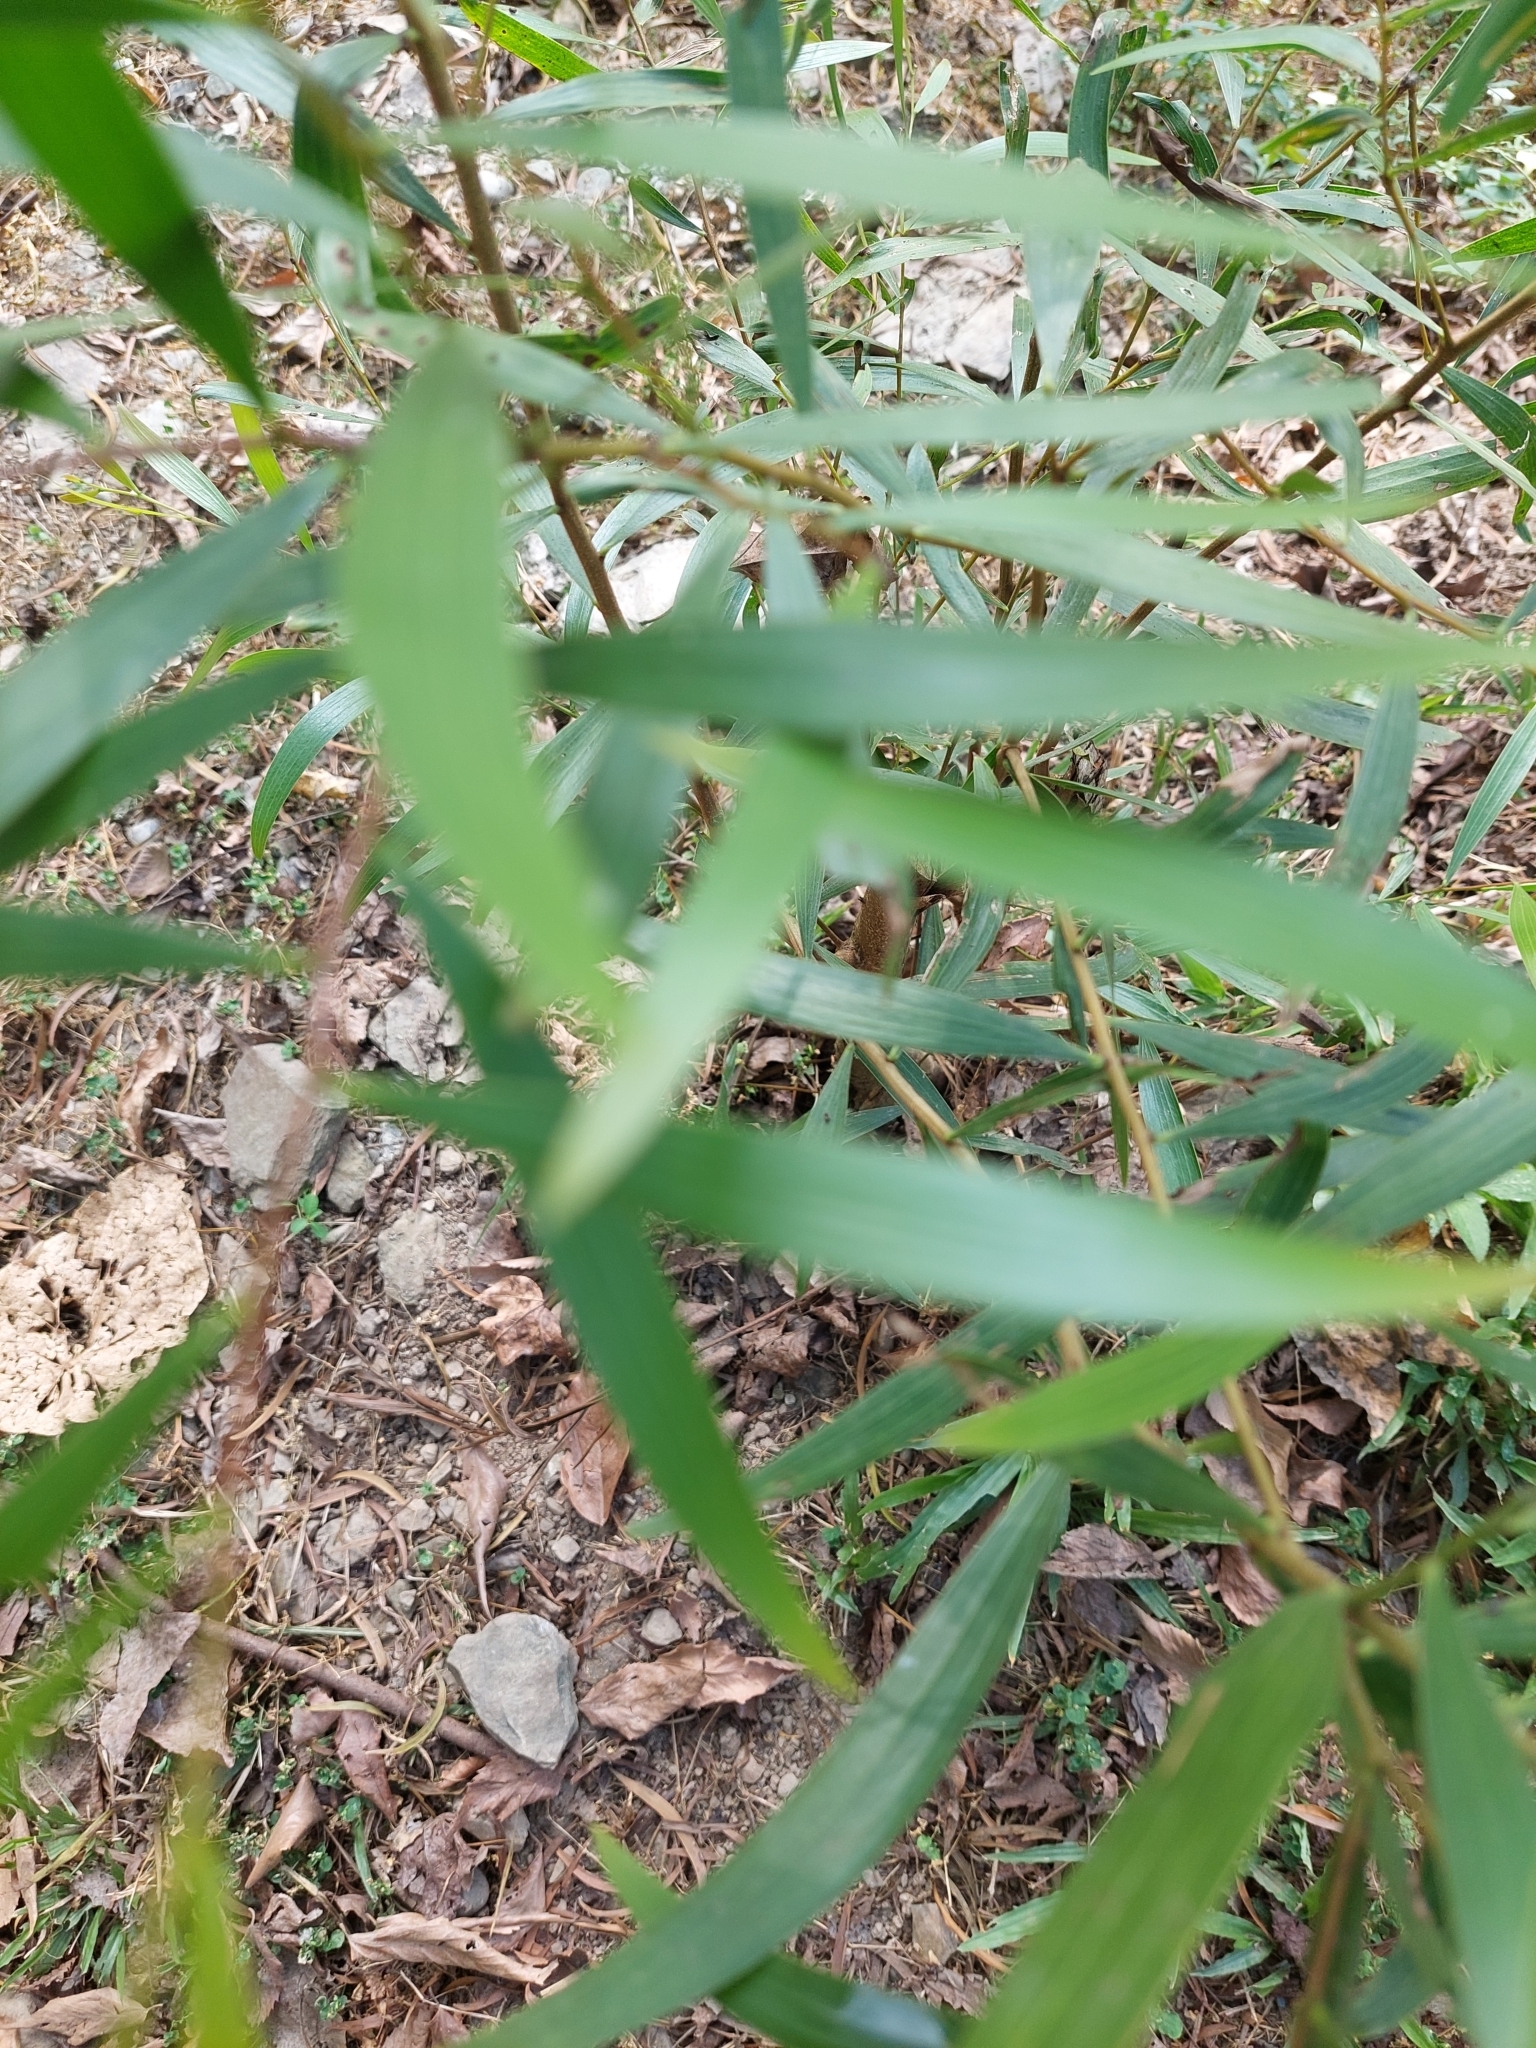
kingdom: Plantae
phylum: Tracheophyta
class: Magnoliopsida
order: Fabales
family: Fabaceae
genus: Acacia
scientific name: Acacia confusa
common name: Formosan koa
